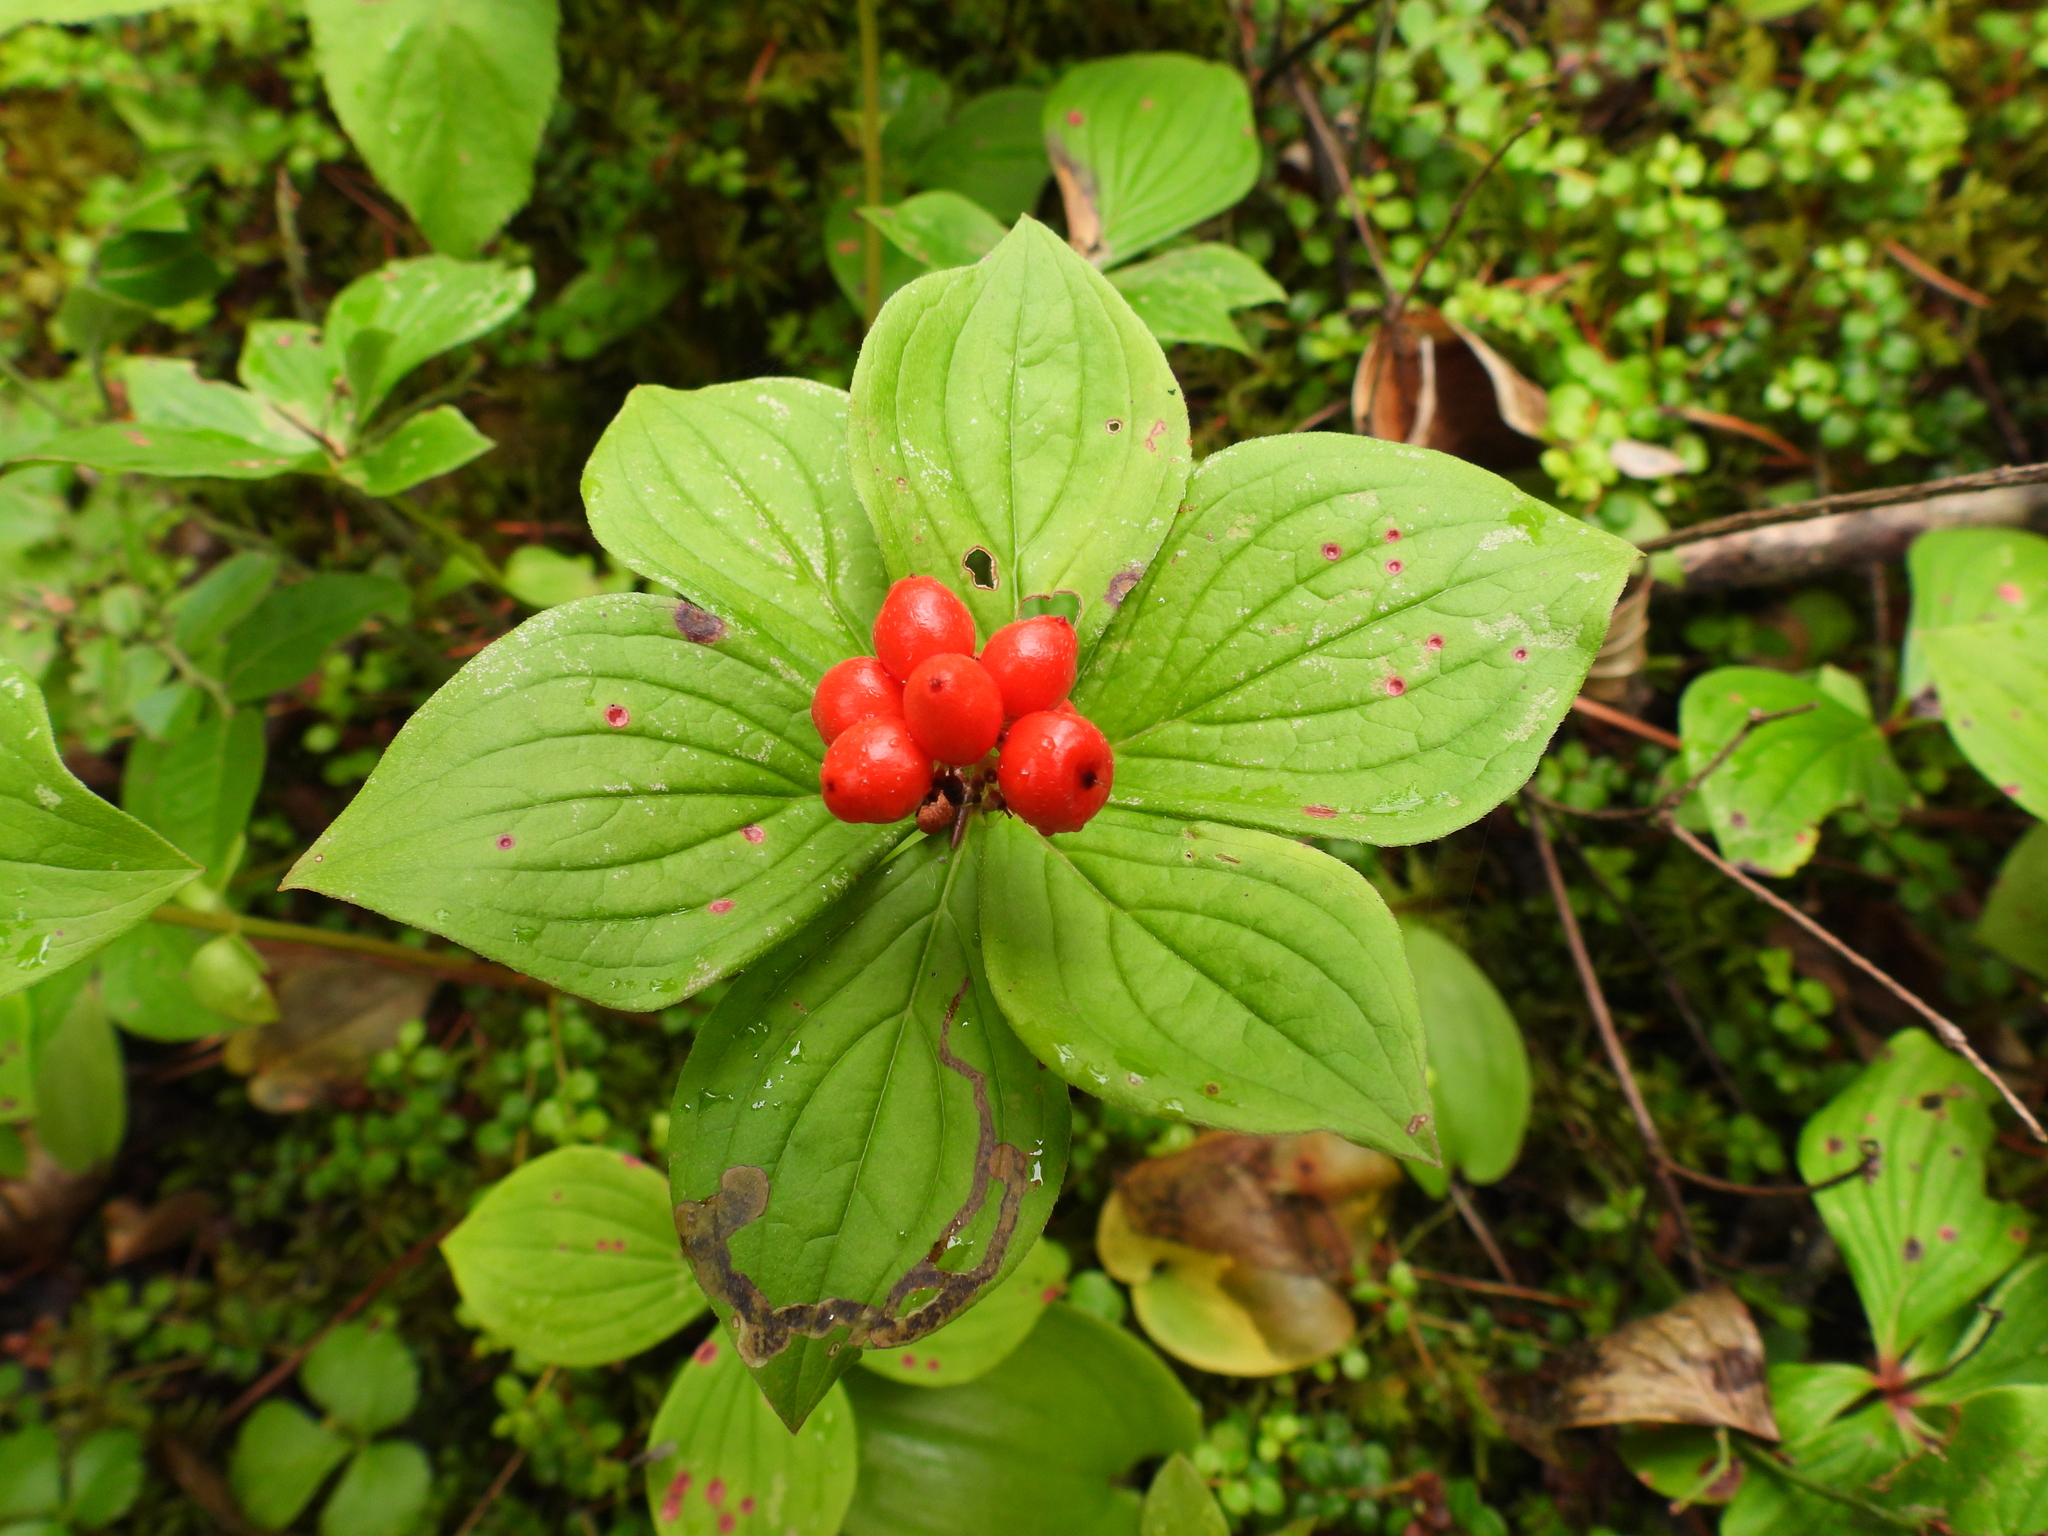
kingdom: Plantae
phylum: Tracheophyta
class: Magnoliopsida
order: Cornales
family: Cornaceae
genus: Cornus
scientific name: Cornus canadensis
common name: Creeping dogwood
